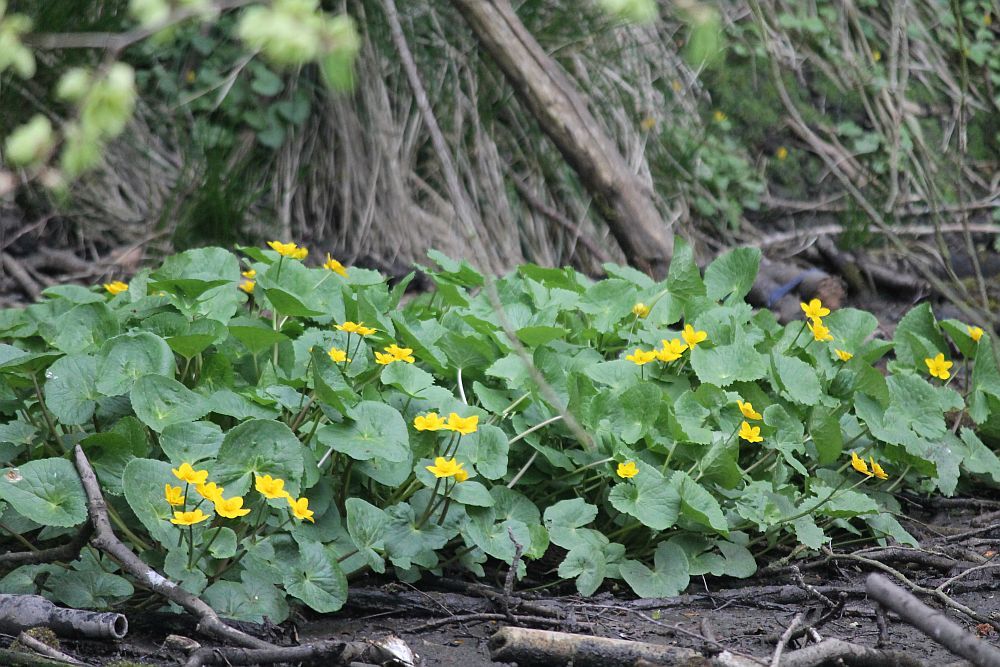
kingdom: Plantae
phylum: Tracheophyta
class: Magnoliopsida
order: Ranunculales
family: Ranunculaceae
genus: Caltha
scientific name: Caltha palustris
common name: Marsh marigold
